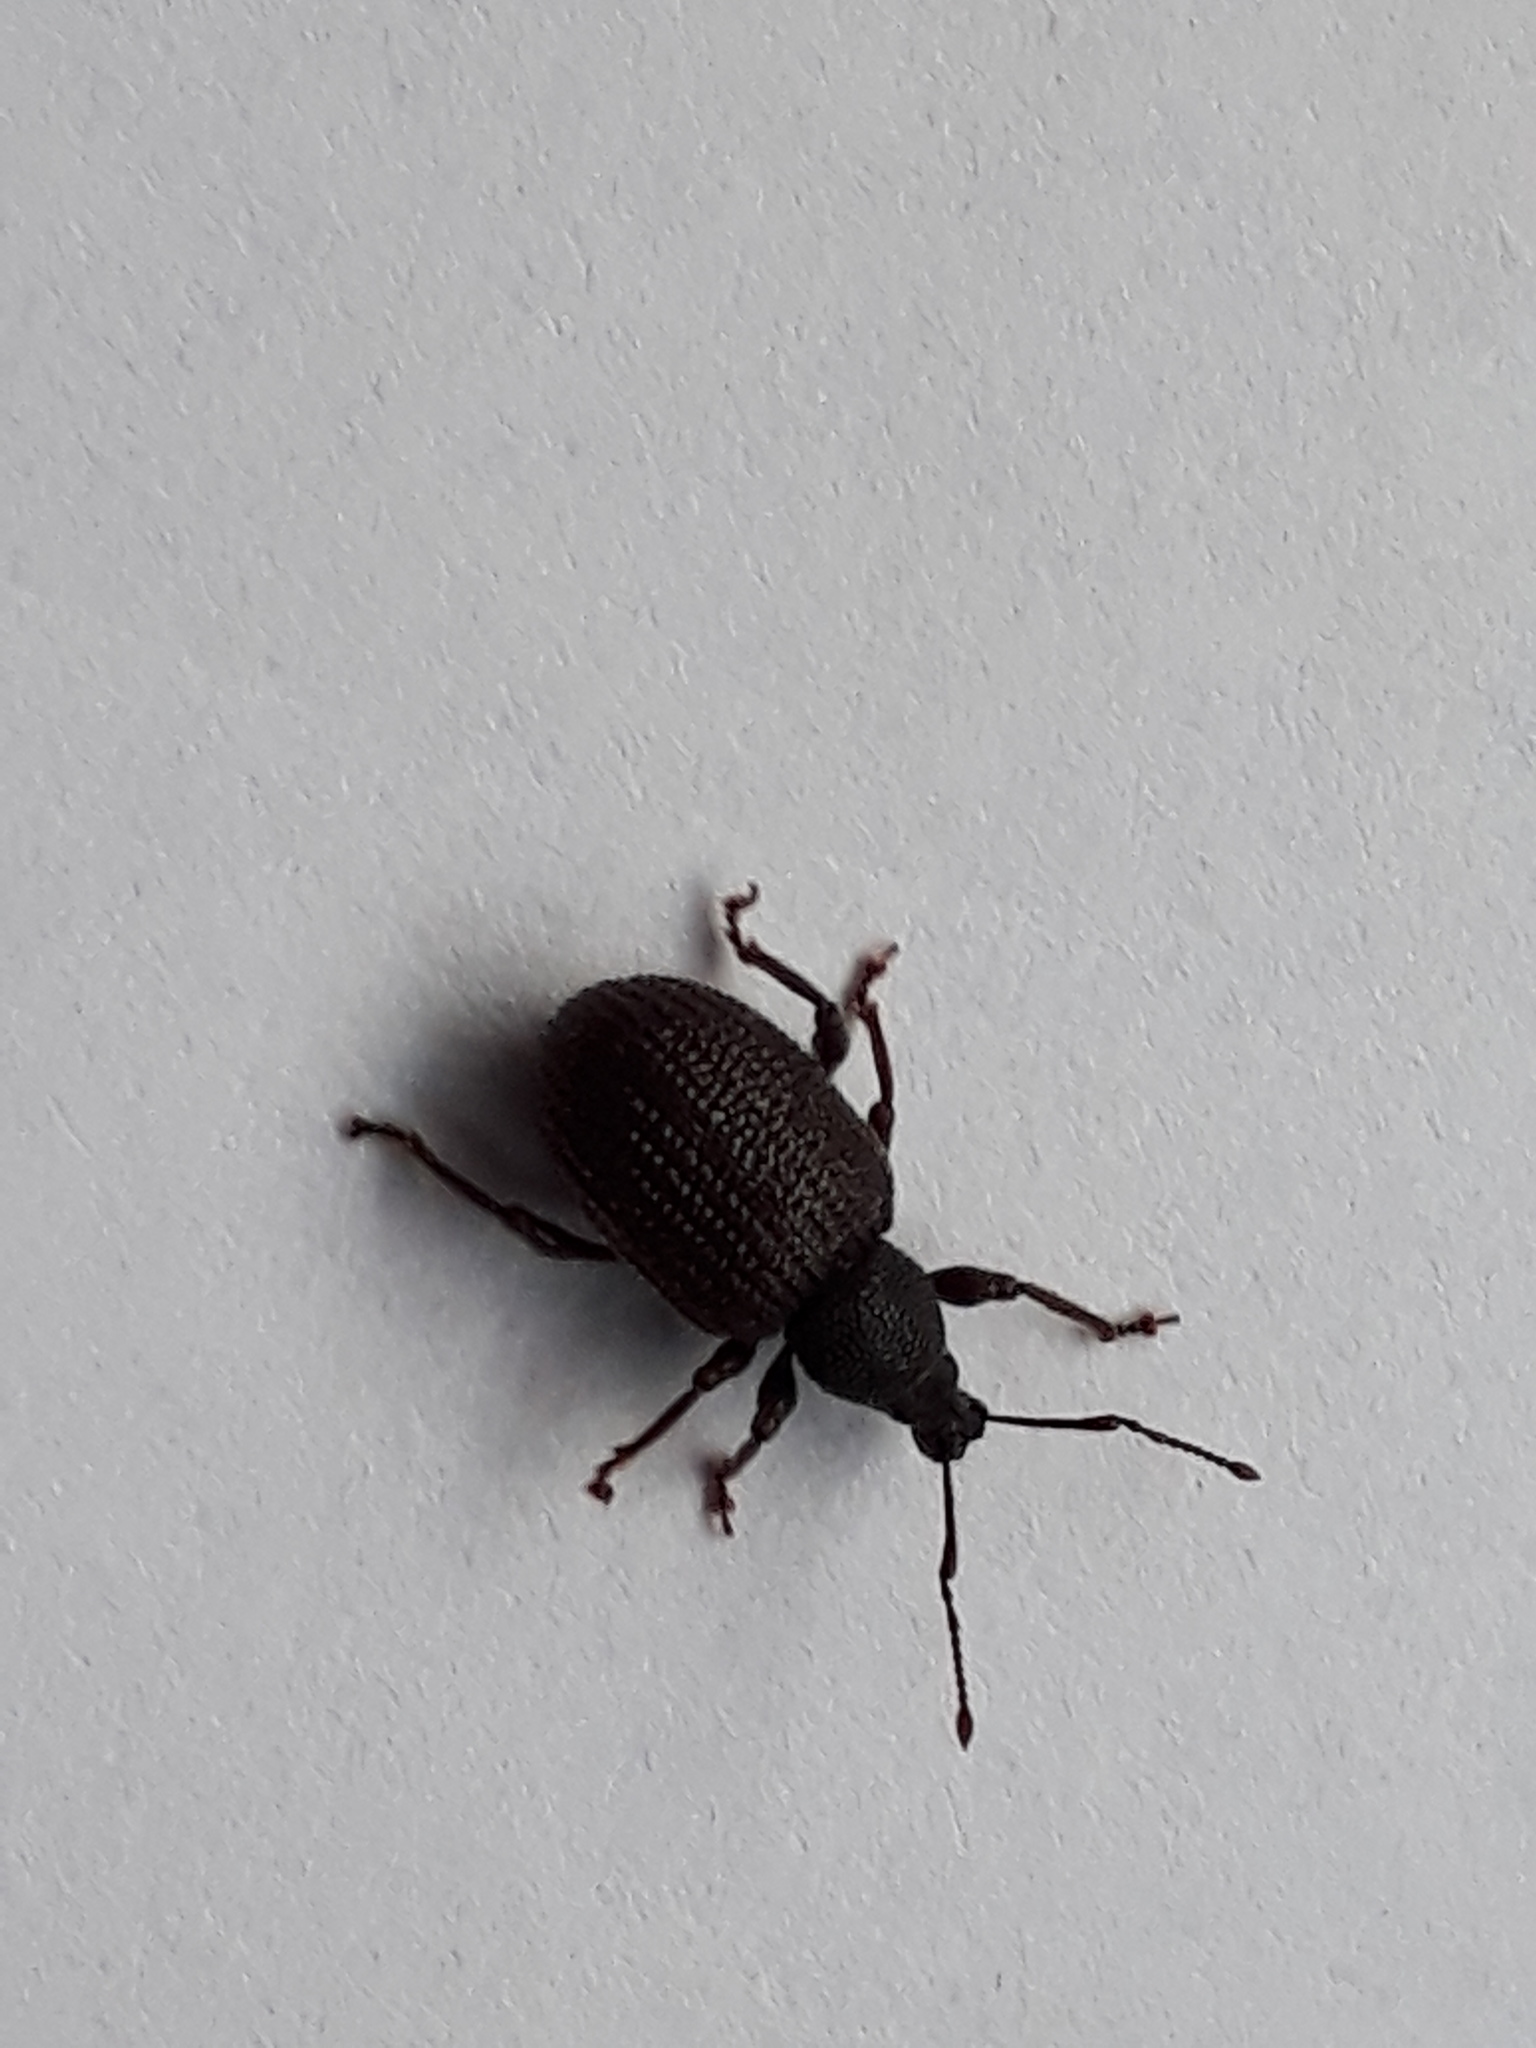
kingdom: Animalia
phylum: Arthropoda
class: Insecta
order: Coleoptera
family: Curculionidae
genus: Otiorhynchus
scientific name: Otiorhynchus rugosostriatus
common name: Weevil
